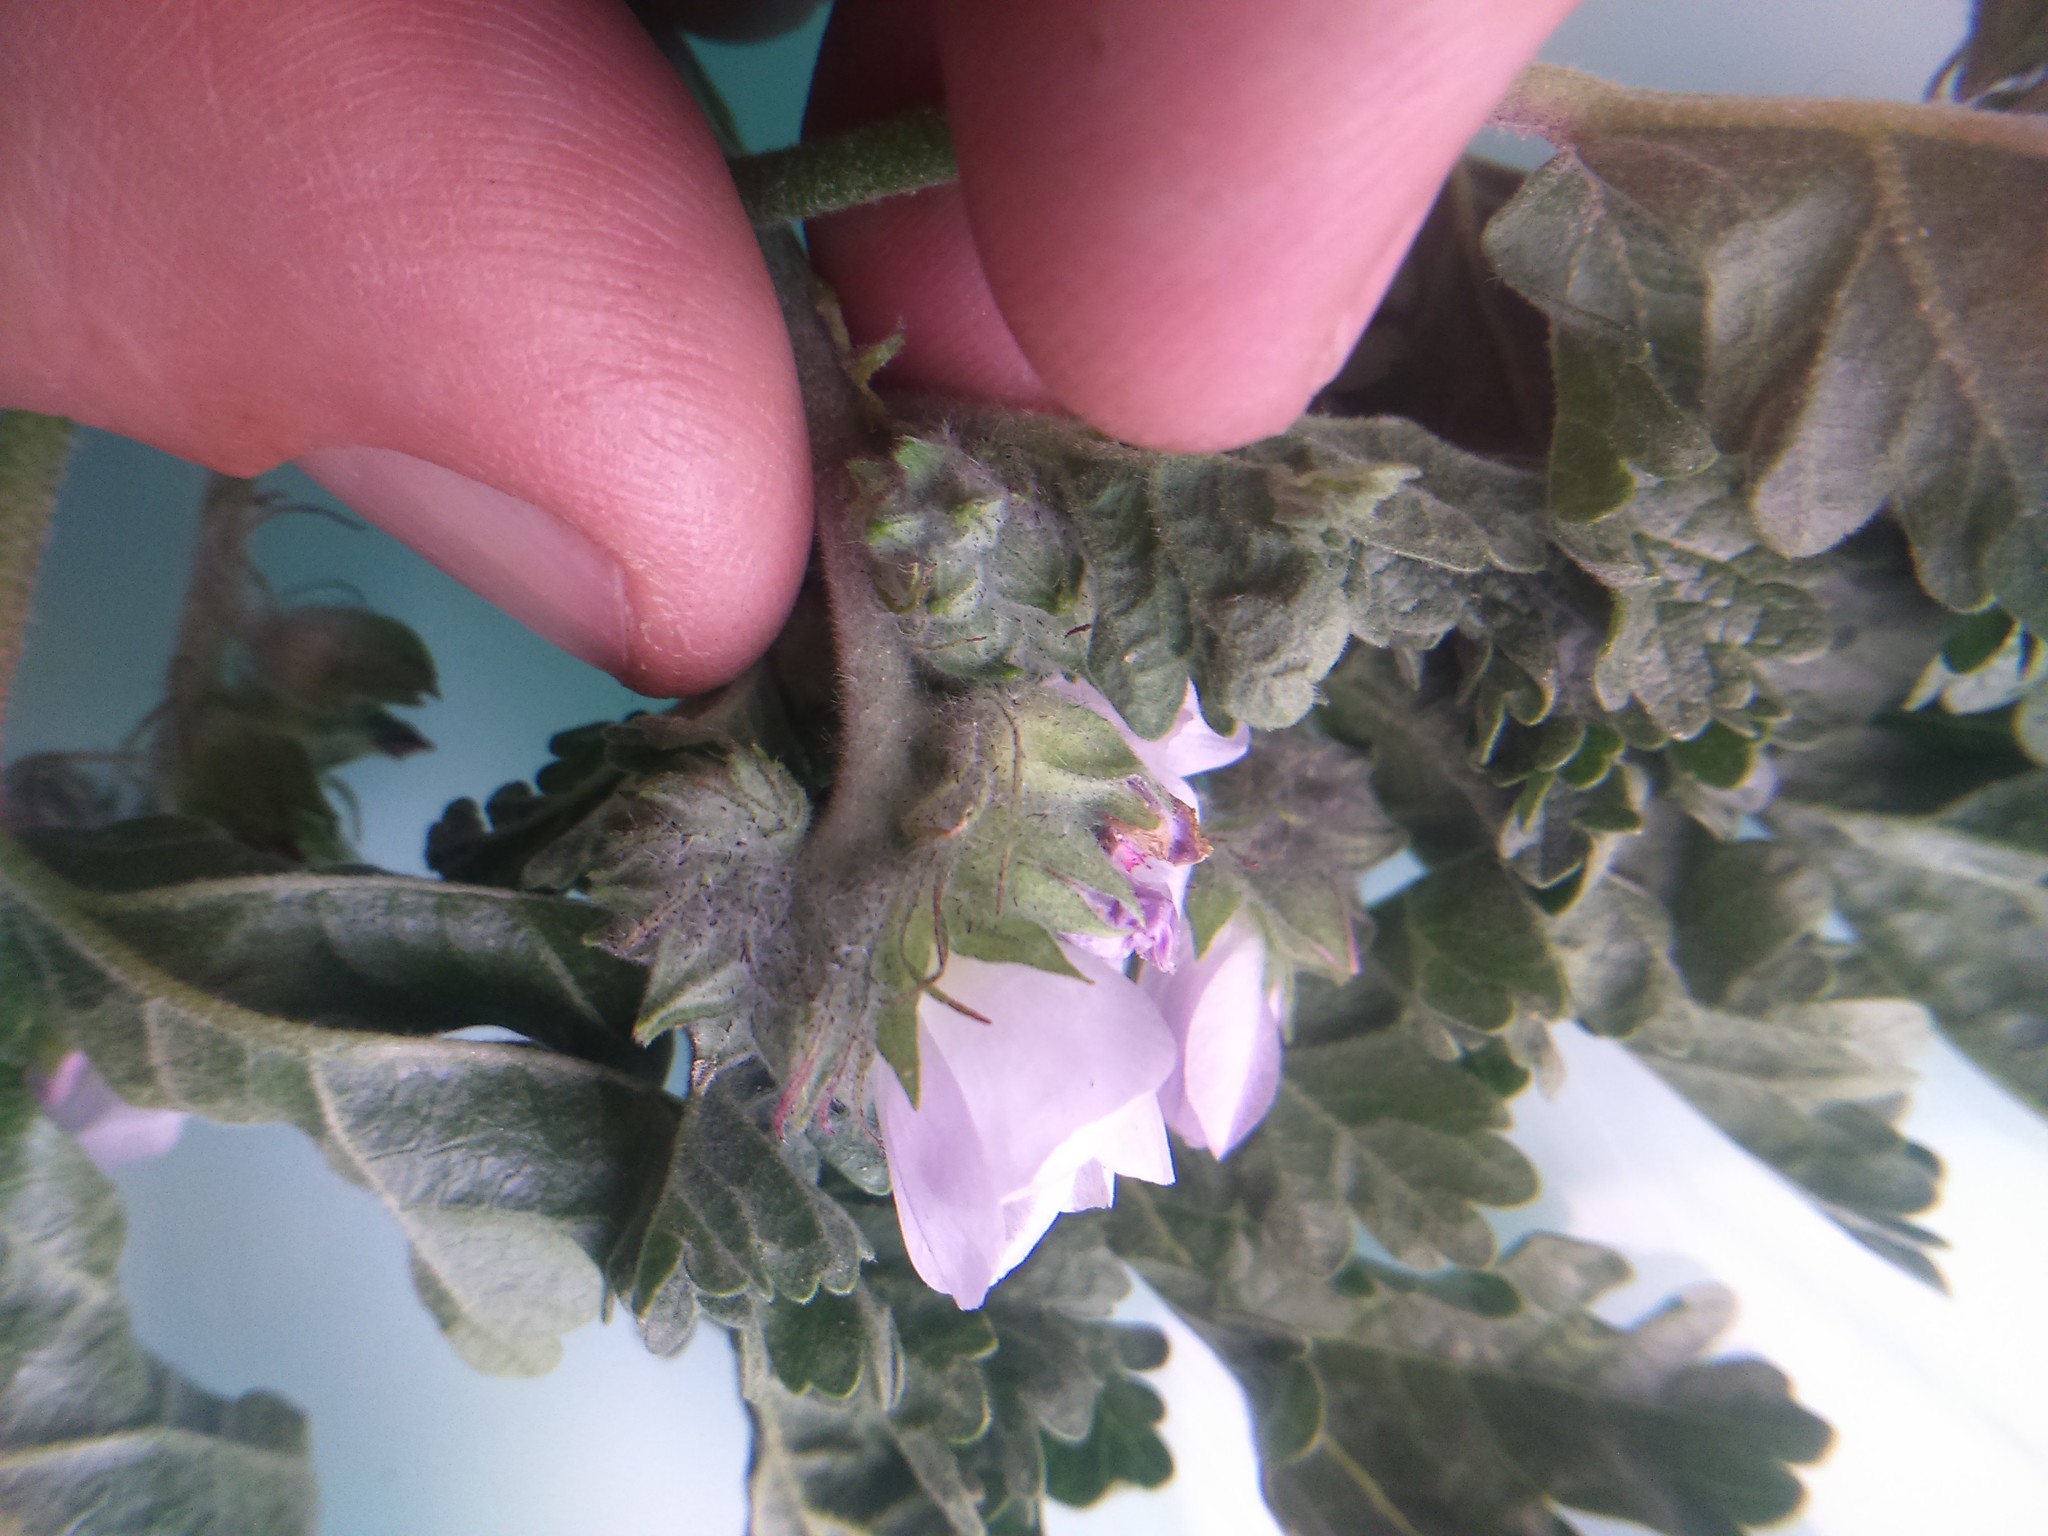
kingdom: Plantae
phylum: Tracheophyta
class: Magnoliopsida
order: Malvales
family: Malvaceae
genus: Tarasa
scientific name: Tarasa tenuis
